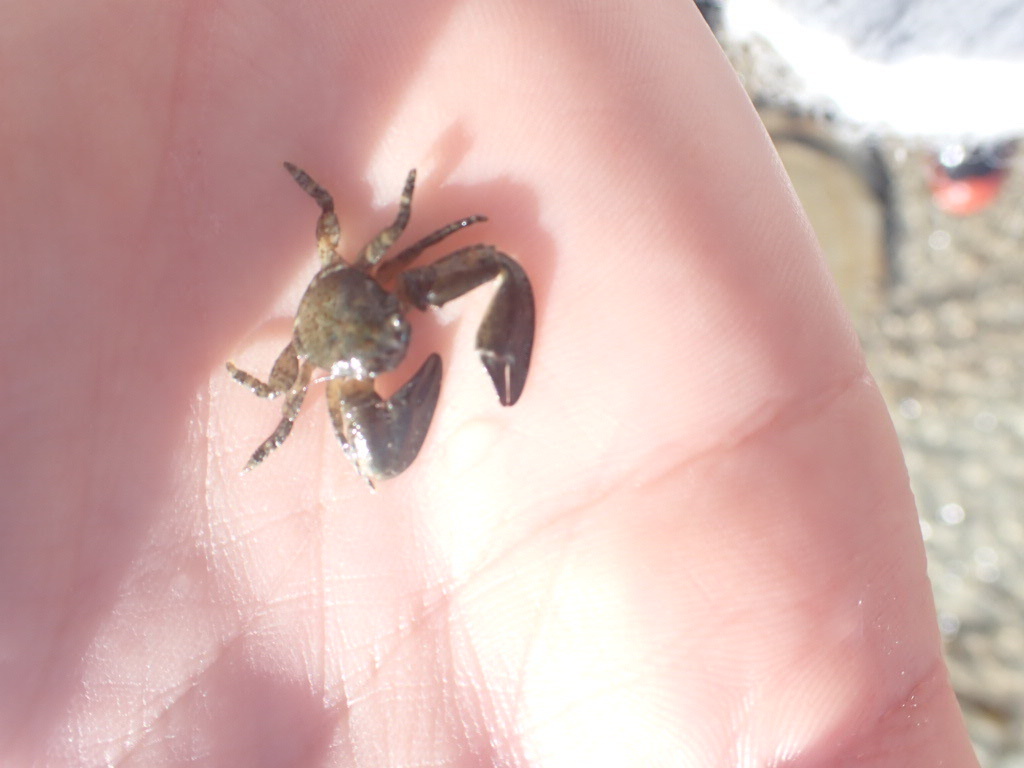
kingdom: Animalia
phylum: Arthropoda
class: Malacostraca
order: Decapoda
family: Porcellanidae
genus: Petrolisthes
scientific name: Petrolisthes elongatus
